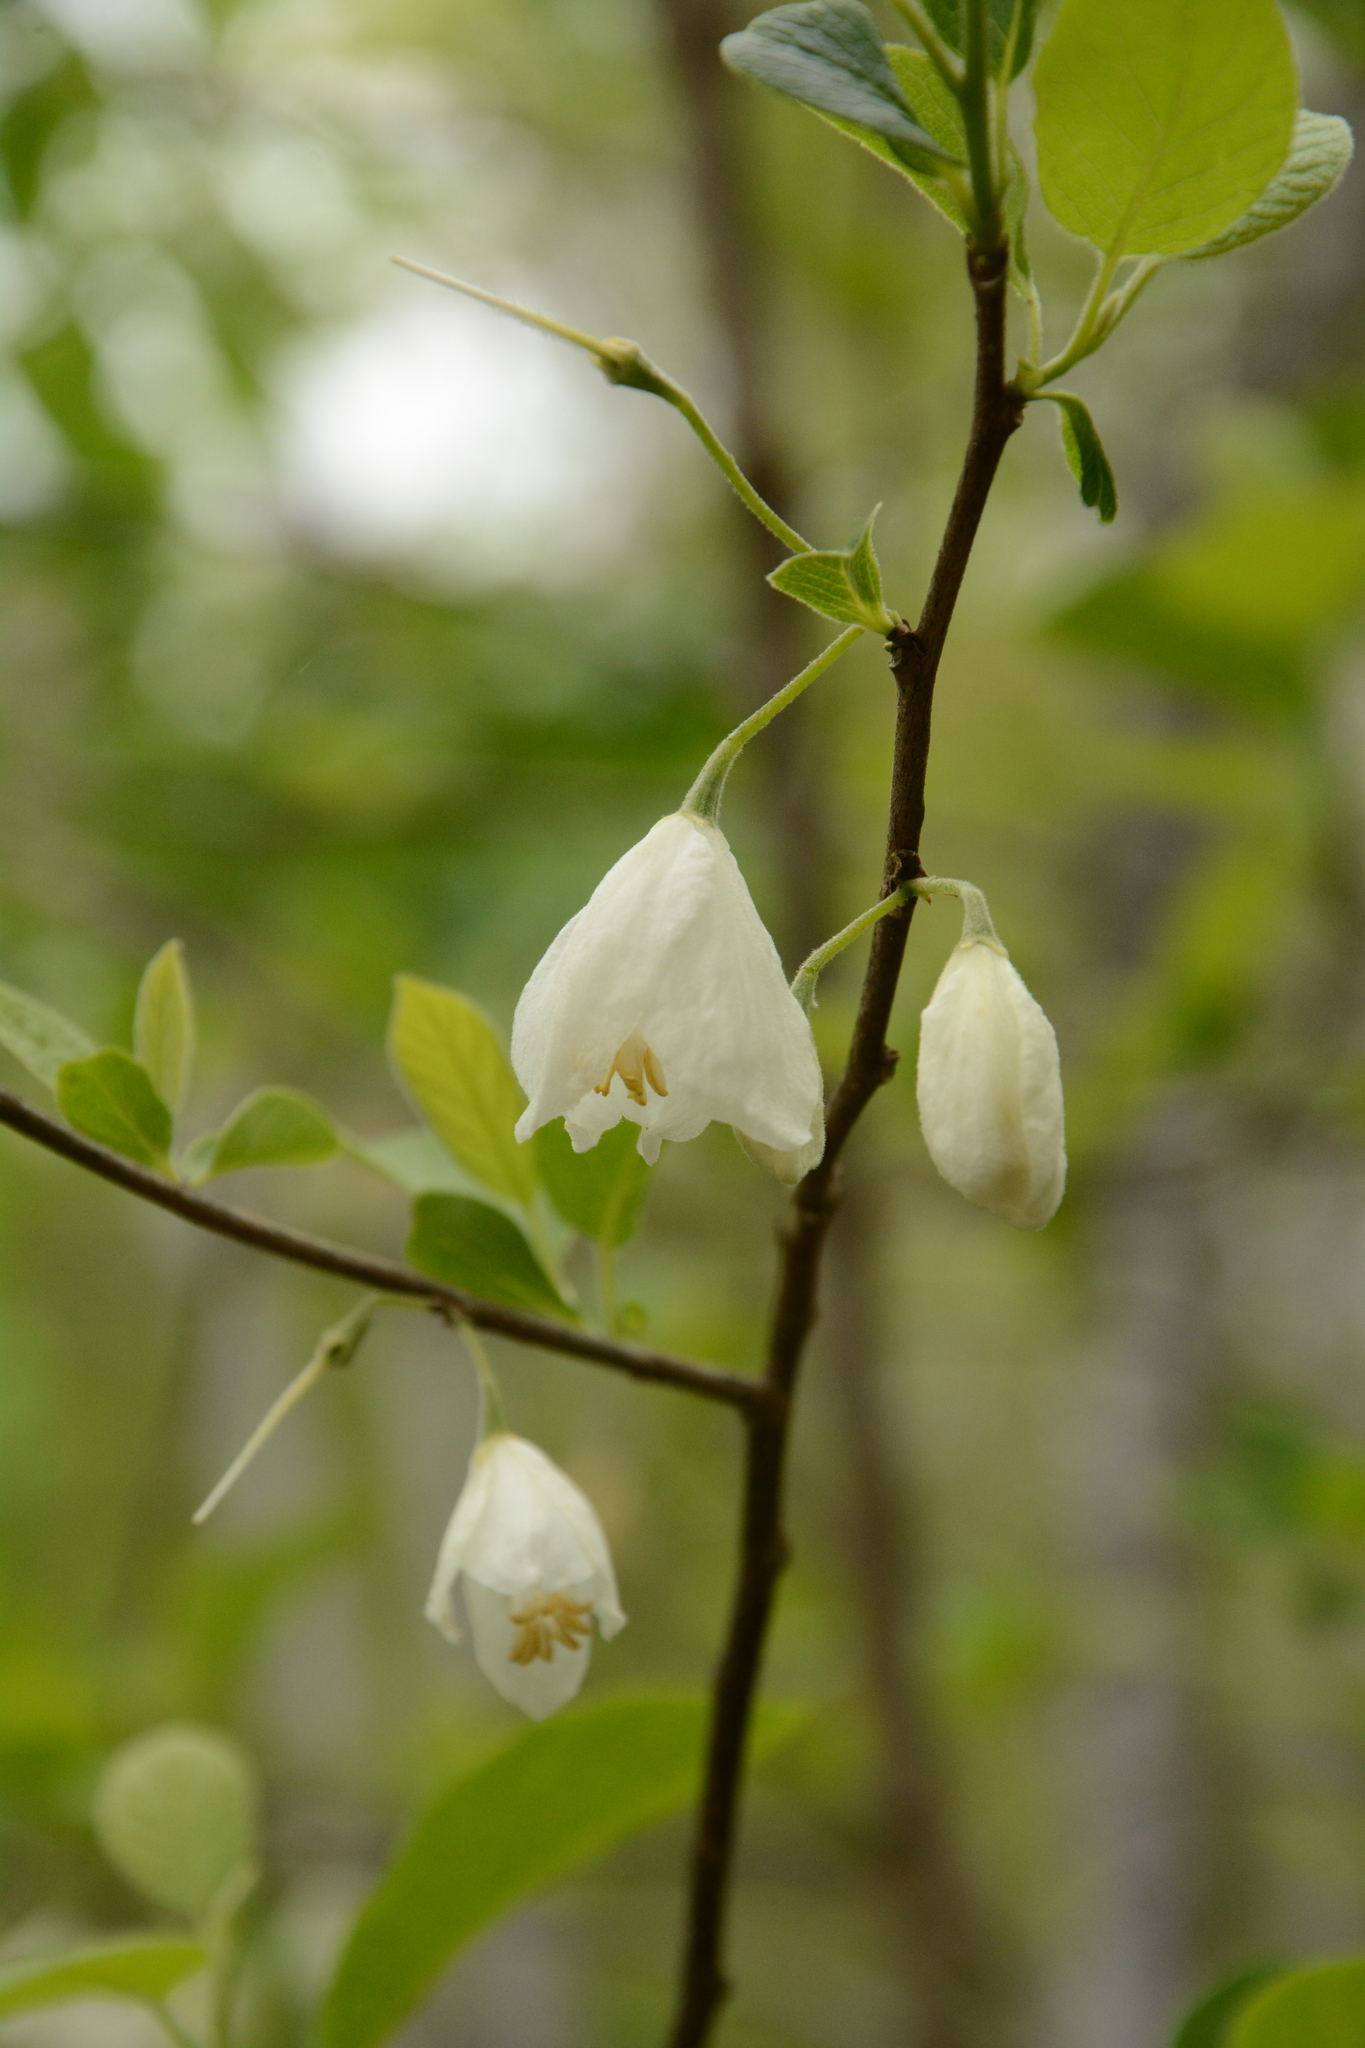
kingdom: Plantae
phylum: Tracheophyta
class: Magnoliopsida
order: Ericales
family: Styracaceae
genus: Halesia
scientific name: Halesia diptera
